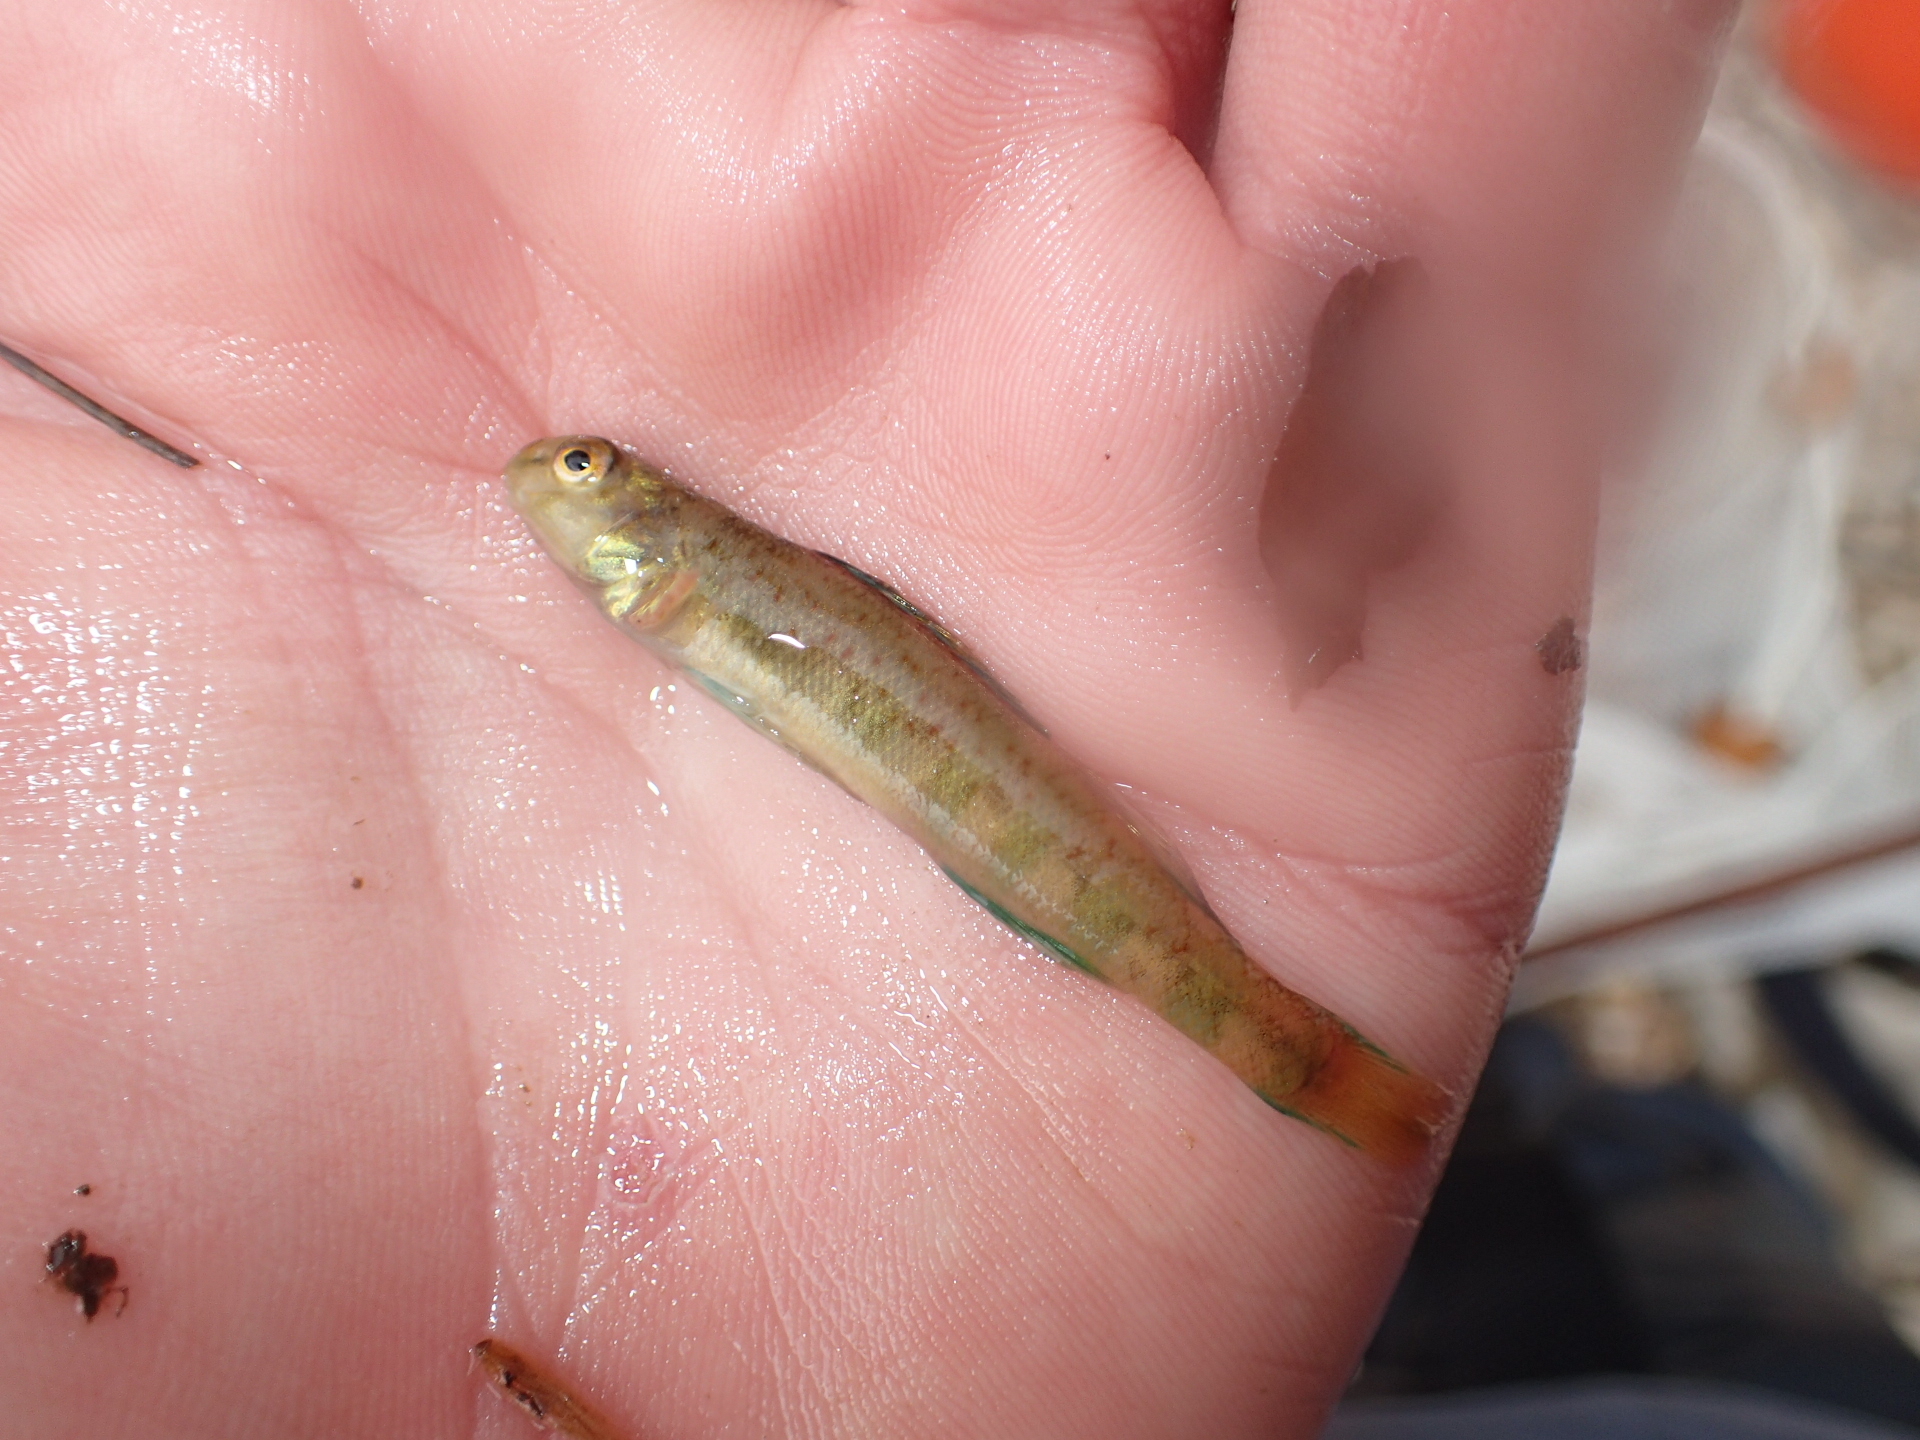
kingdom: Animalia
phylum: Chordata
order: Perciformes
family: Percidae
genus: Etheostoma
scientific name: Etheostoma blennioides
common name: Greenside darter
